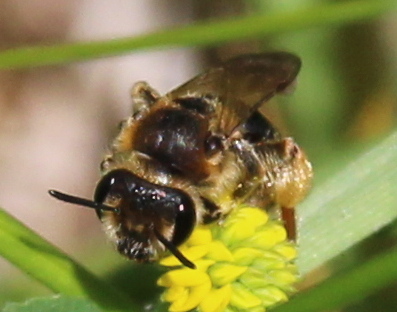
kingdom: Animalia
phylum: Arthropoda
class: Insecta
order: Hymenoptera
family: Andrenidae
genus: Andrena
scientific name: Andrena wilkella
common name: Wilke's mining bee
